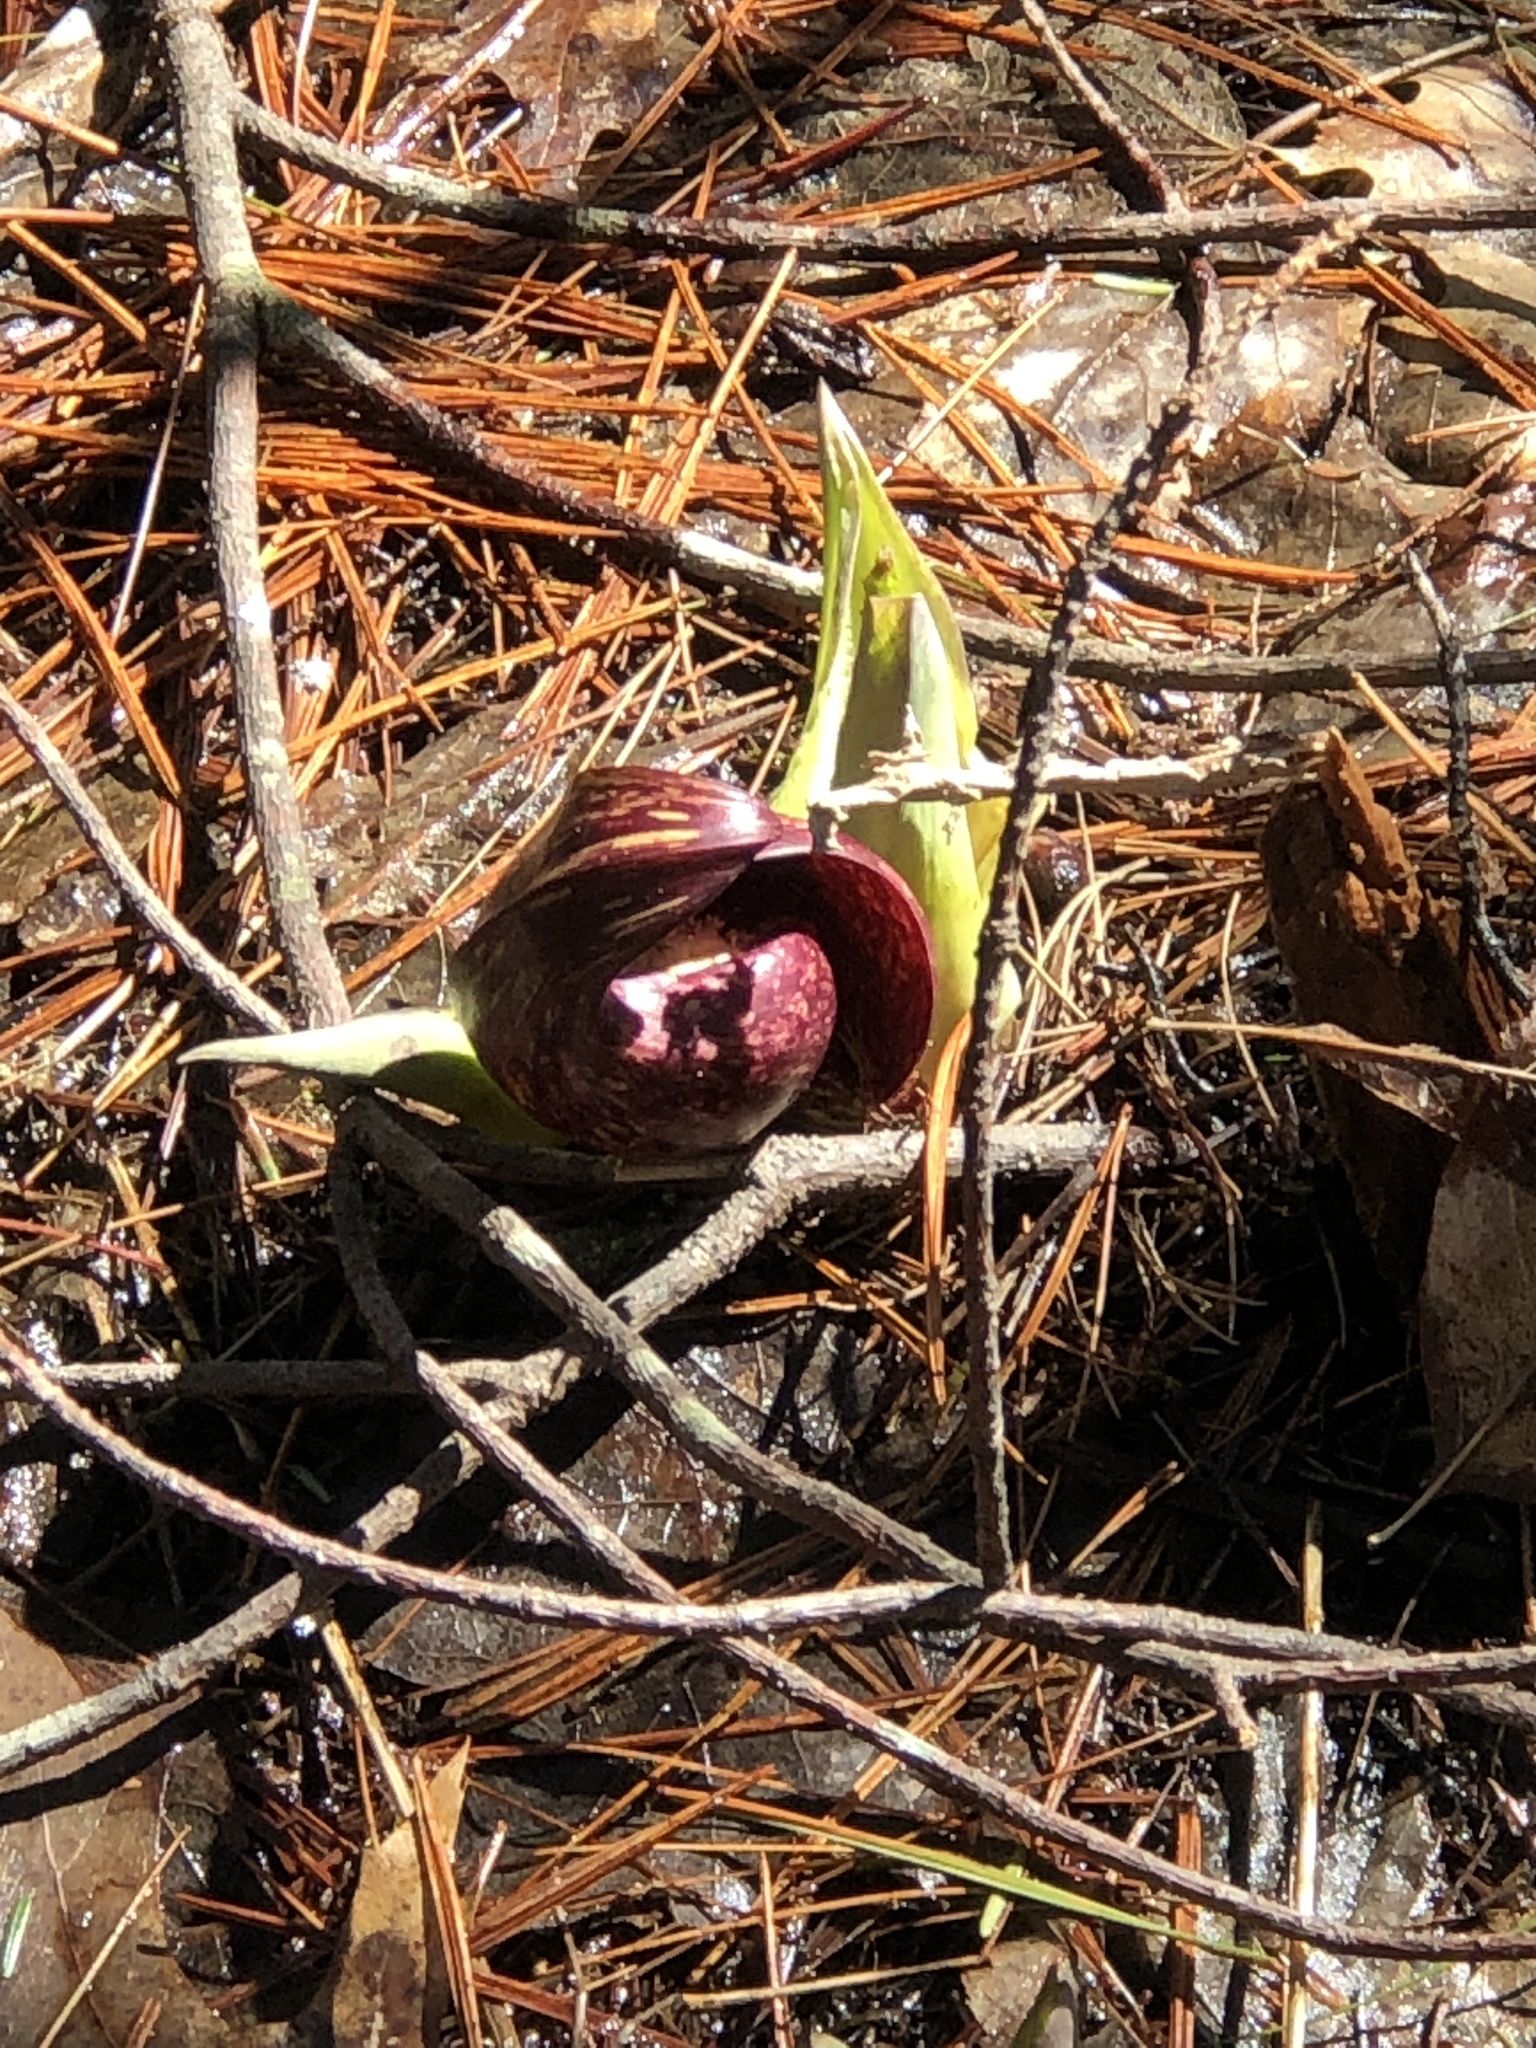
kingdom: Plantae
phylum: Tracheophyta
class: Liliopsida
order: Alismatales
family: Araceae
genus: Symplocarpus
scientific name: Symplocarpus foetidus
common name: Eastern skunk cabbage
